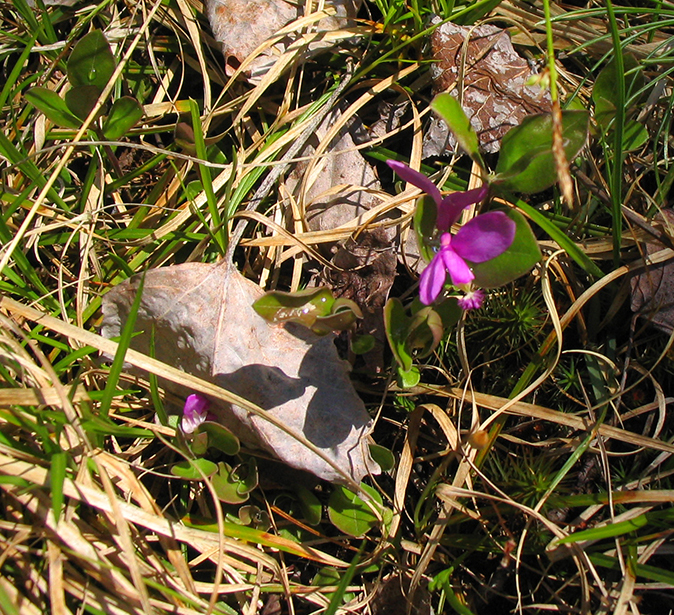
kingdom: Plantae
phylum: Tracheophyta
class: Magnoliopsida
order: Fabales
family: Polygalaceae
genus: Polygaloides
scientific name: Polygaloides paucifolia
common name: Bird-on-the-wing
